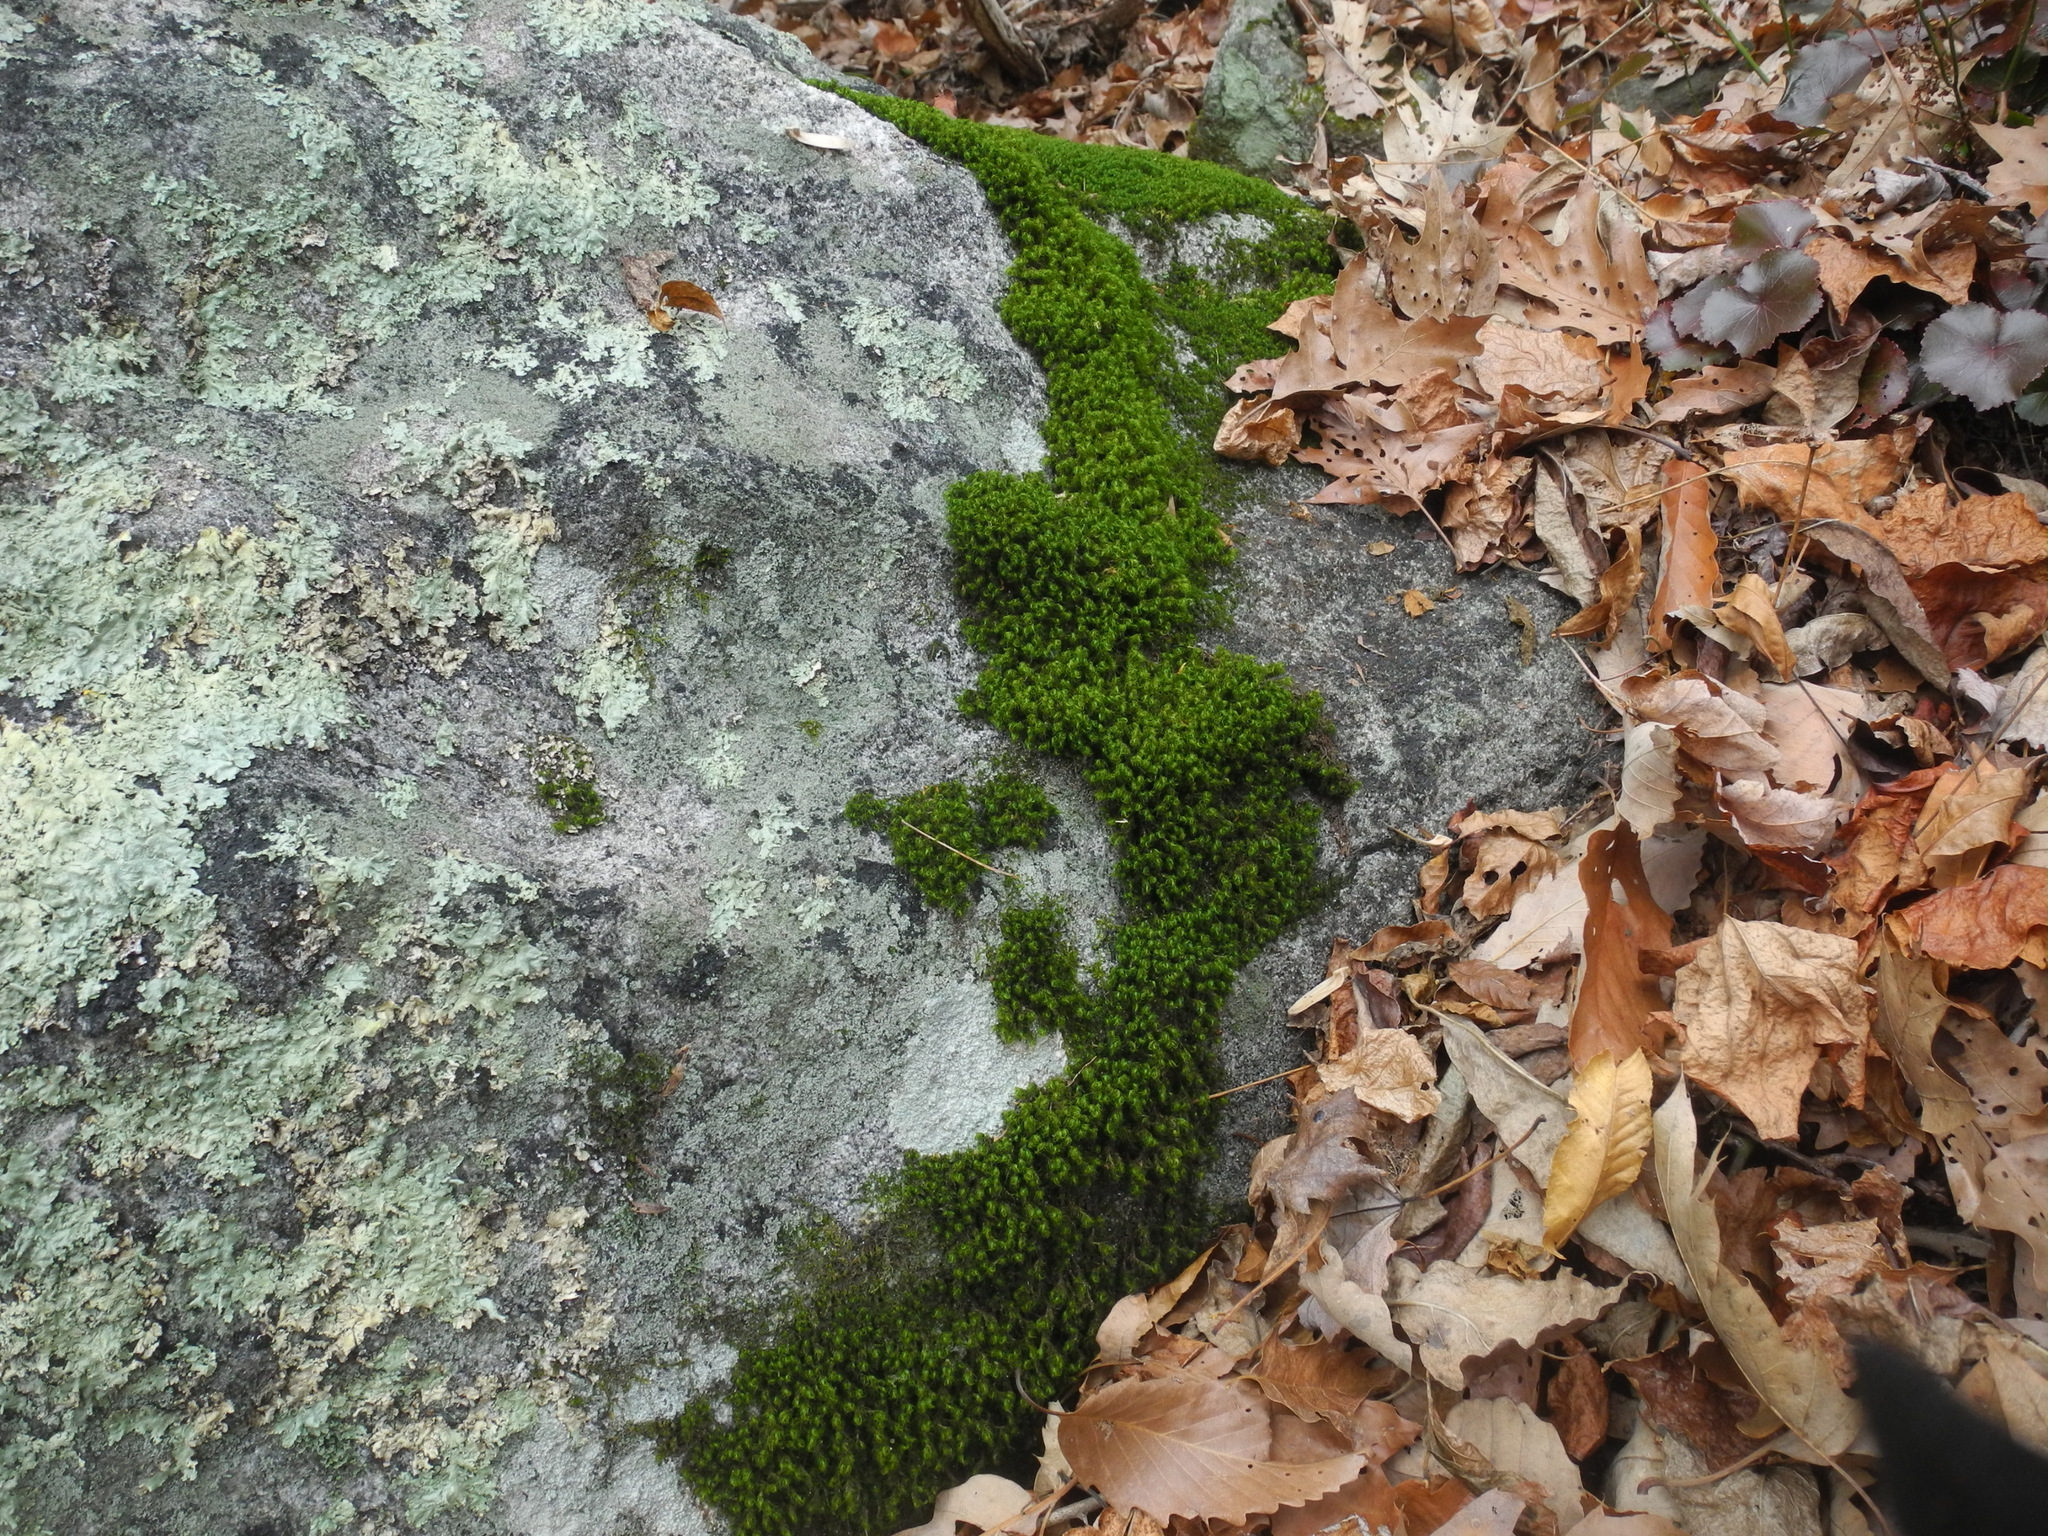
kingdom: Plantae
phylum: Bryophyta
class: Bryopsida
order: Bartramiales
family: Bartramiaceae
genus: Bartramia
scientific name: Bartramia ithyphylla
